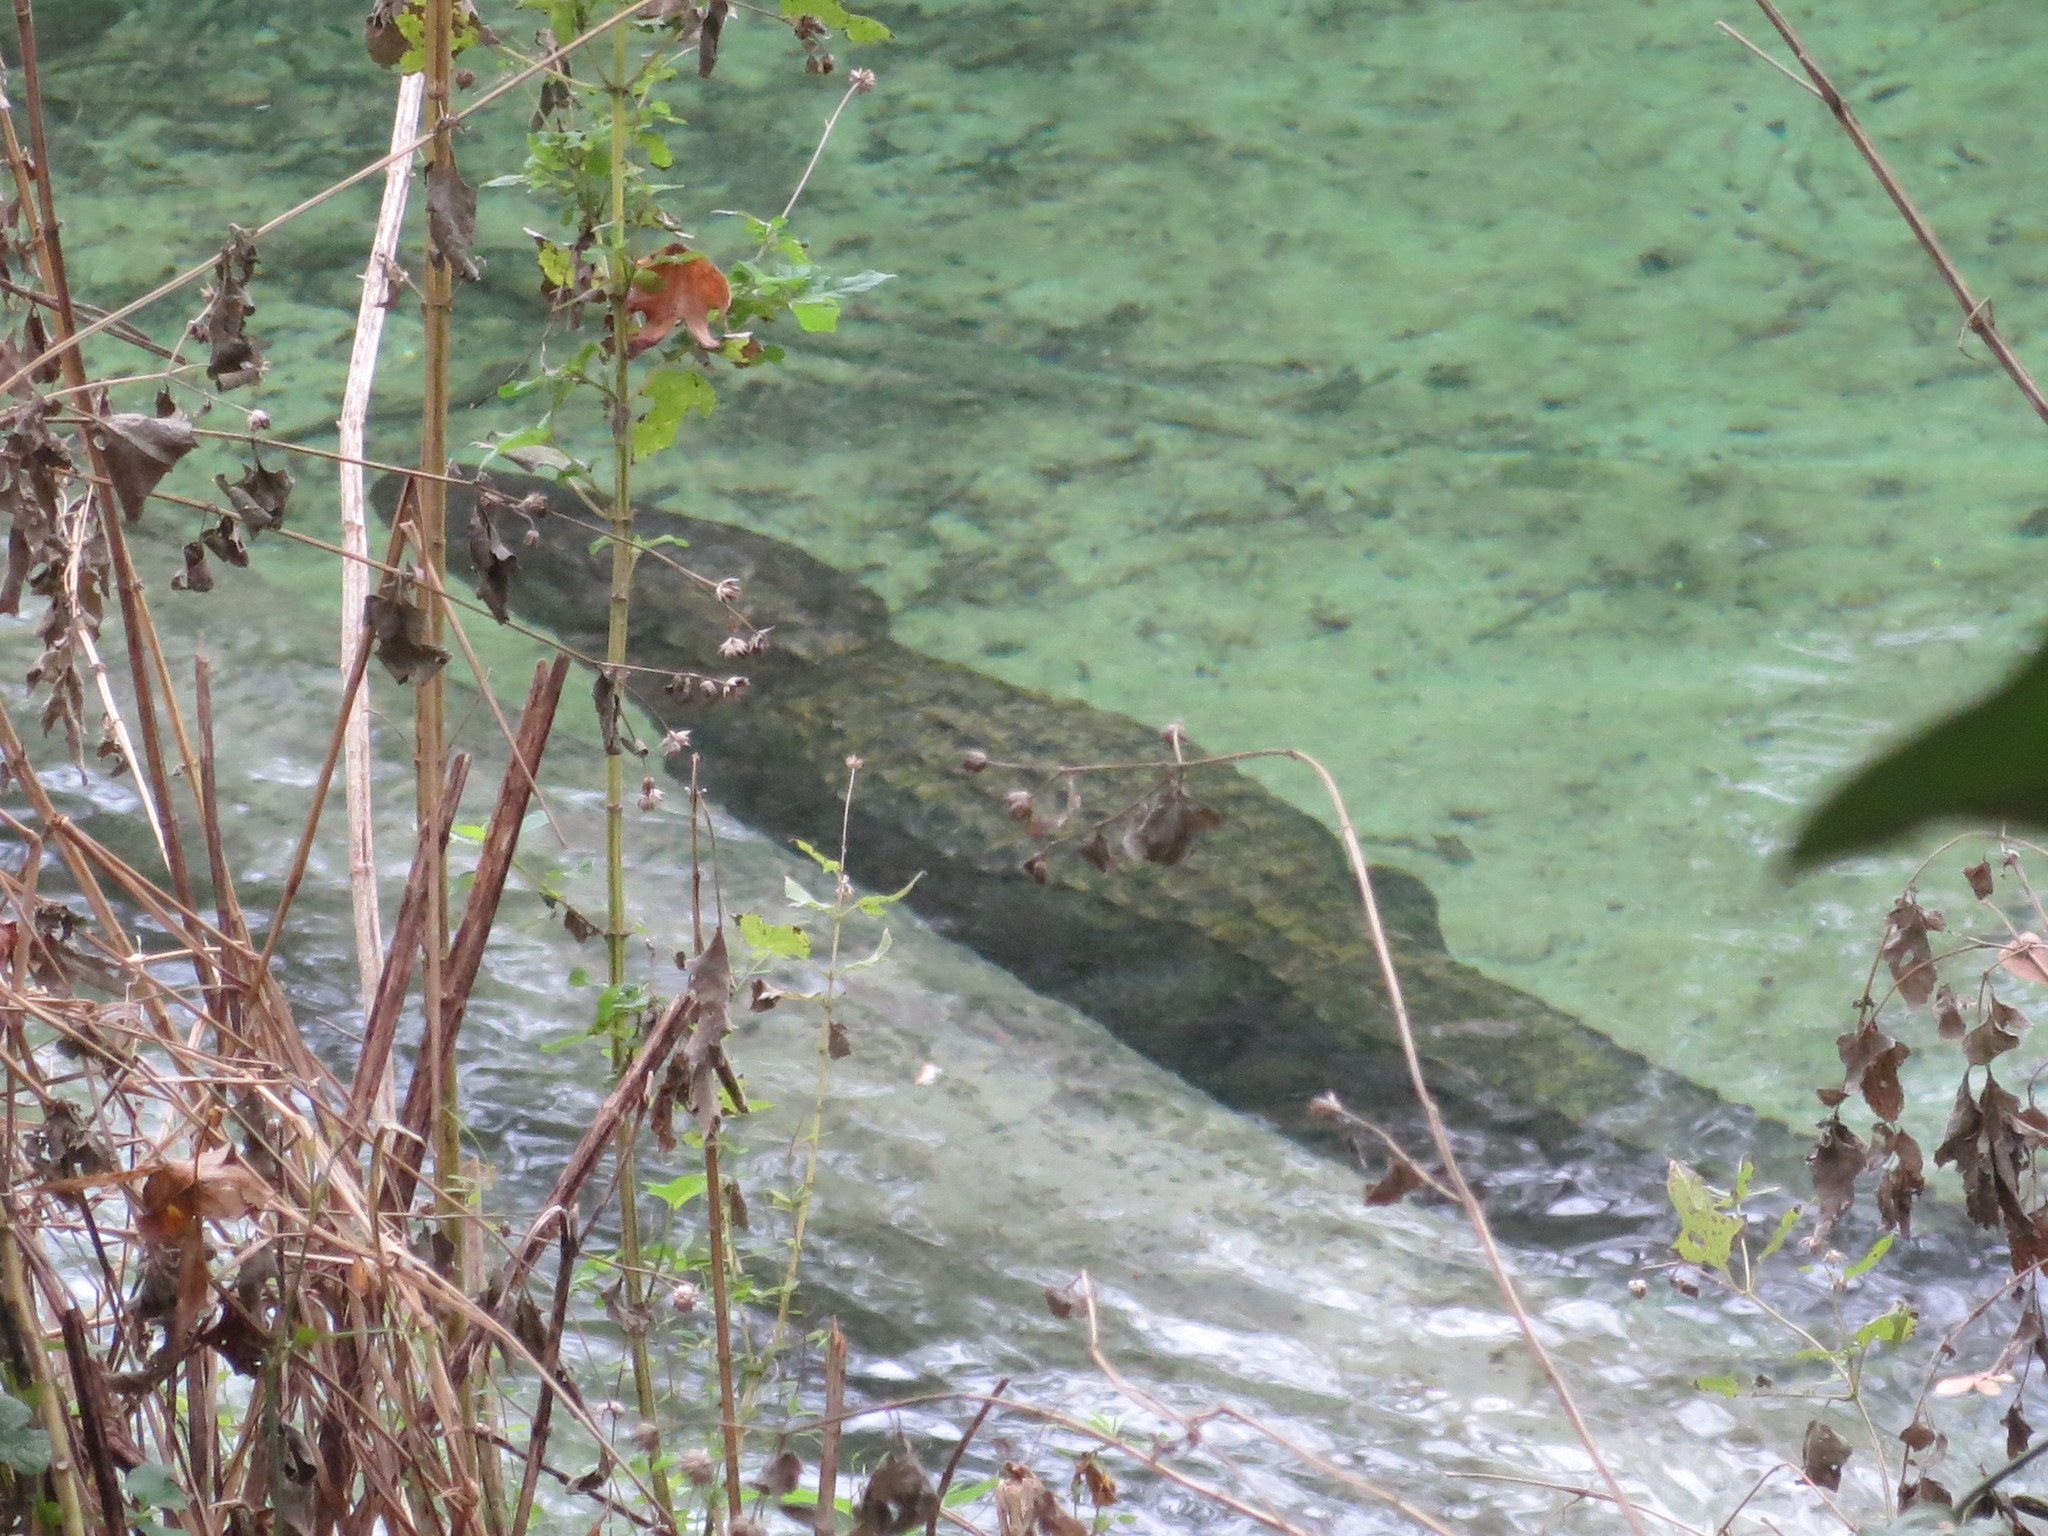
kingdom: Animalia
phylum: Chordata
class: Crocodylia
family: Alligatoridae
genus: Alligator
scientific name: Alligator mississippiensis
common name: American alligator
